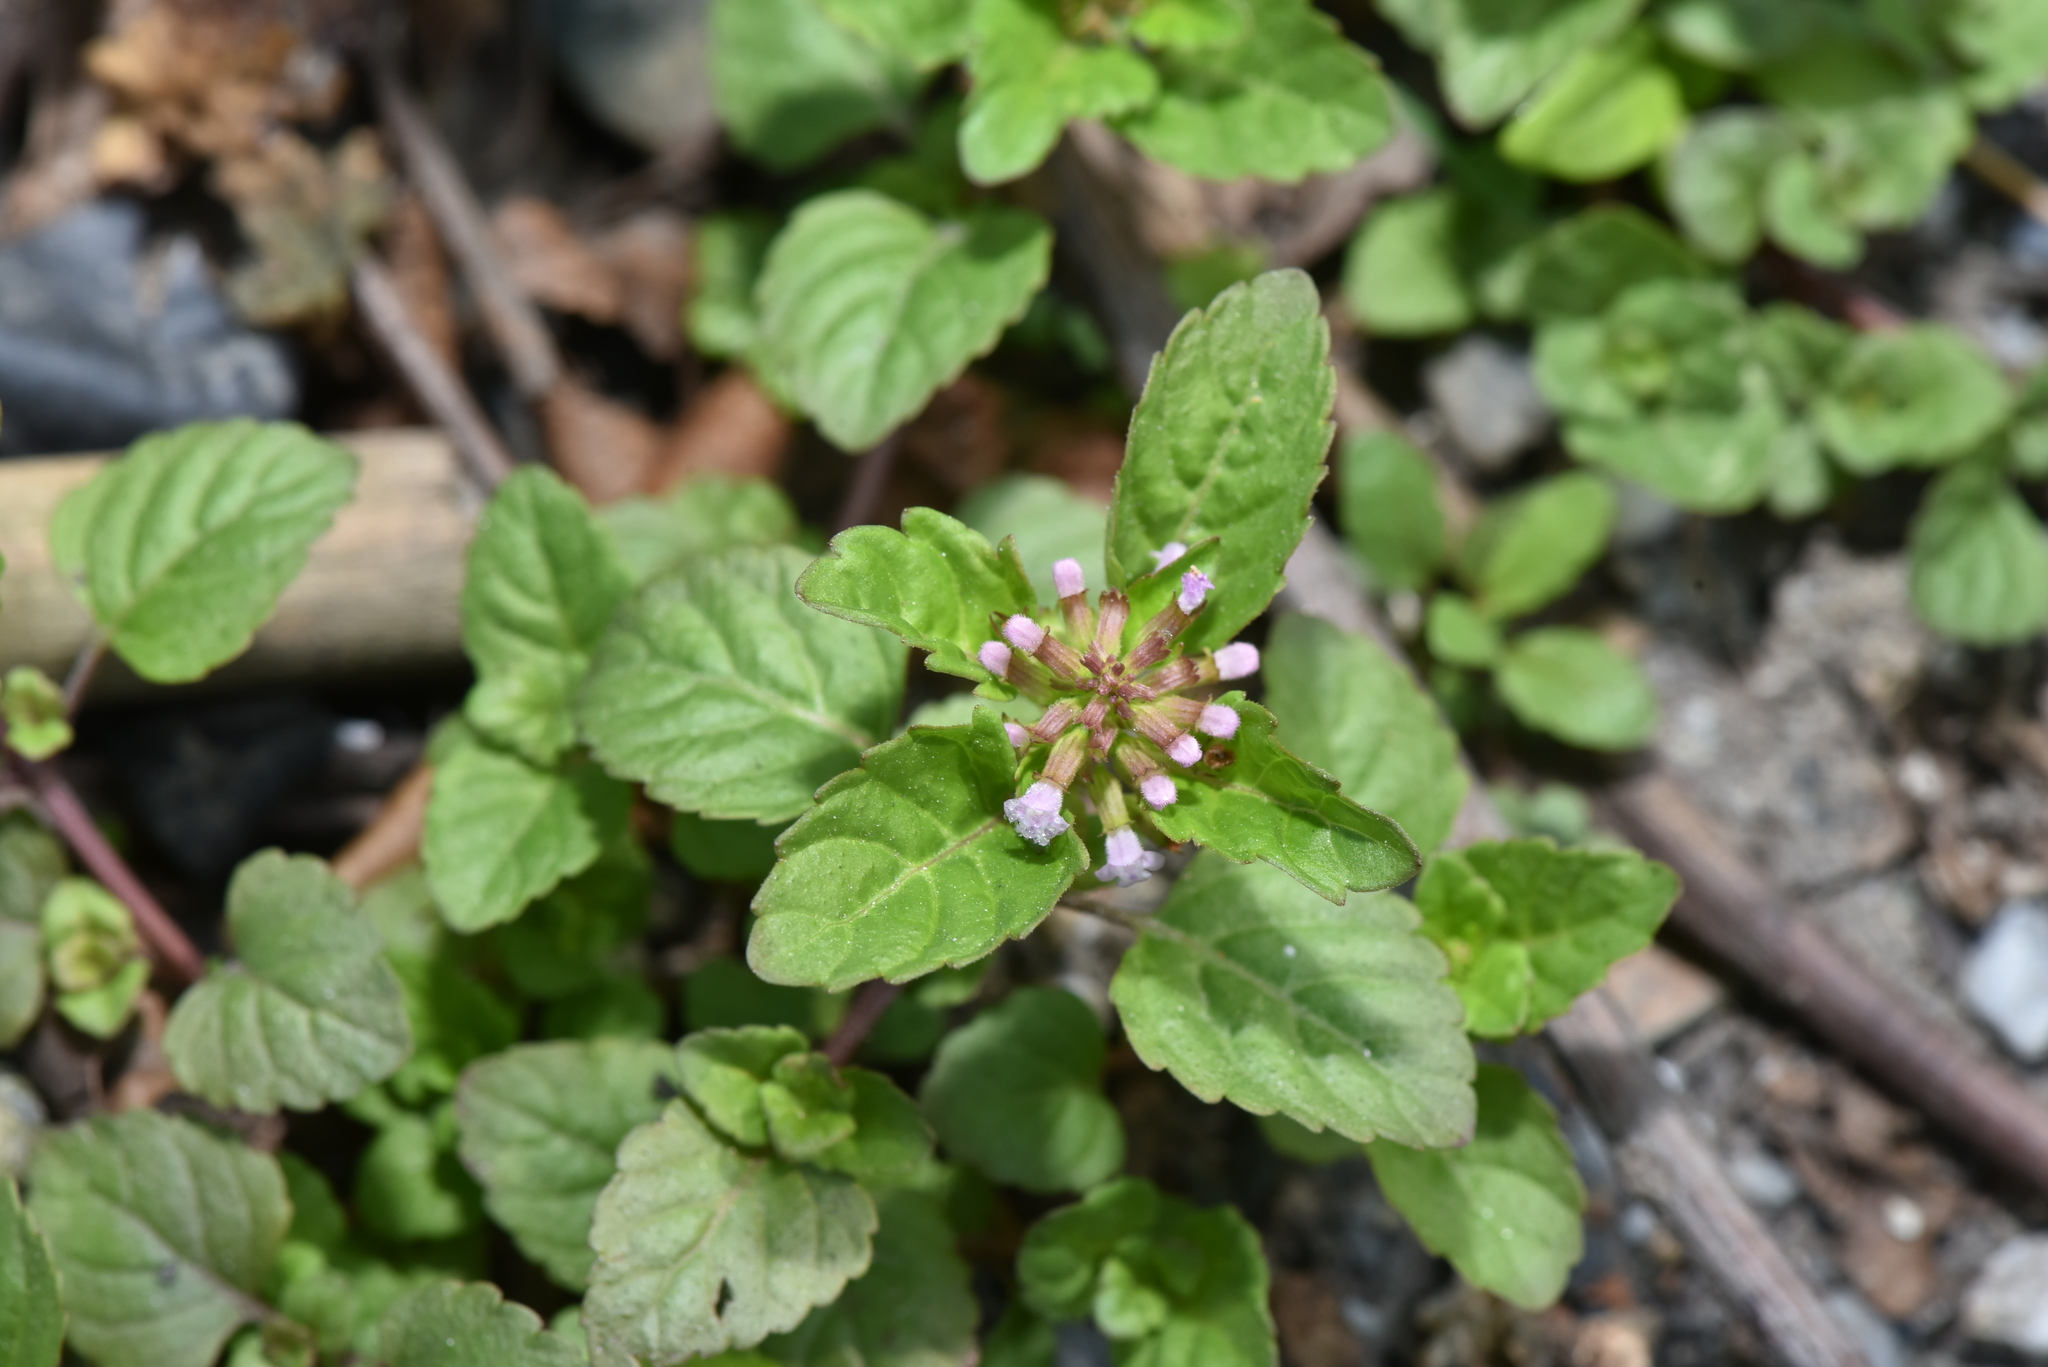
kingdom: Plantae
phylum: Tracheophyta
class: Magnoliopsida
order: Lamiales
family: Lamiaceae
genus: Clinopodium
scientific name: Clinopodium gracile
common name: Slender wild basil
